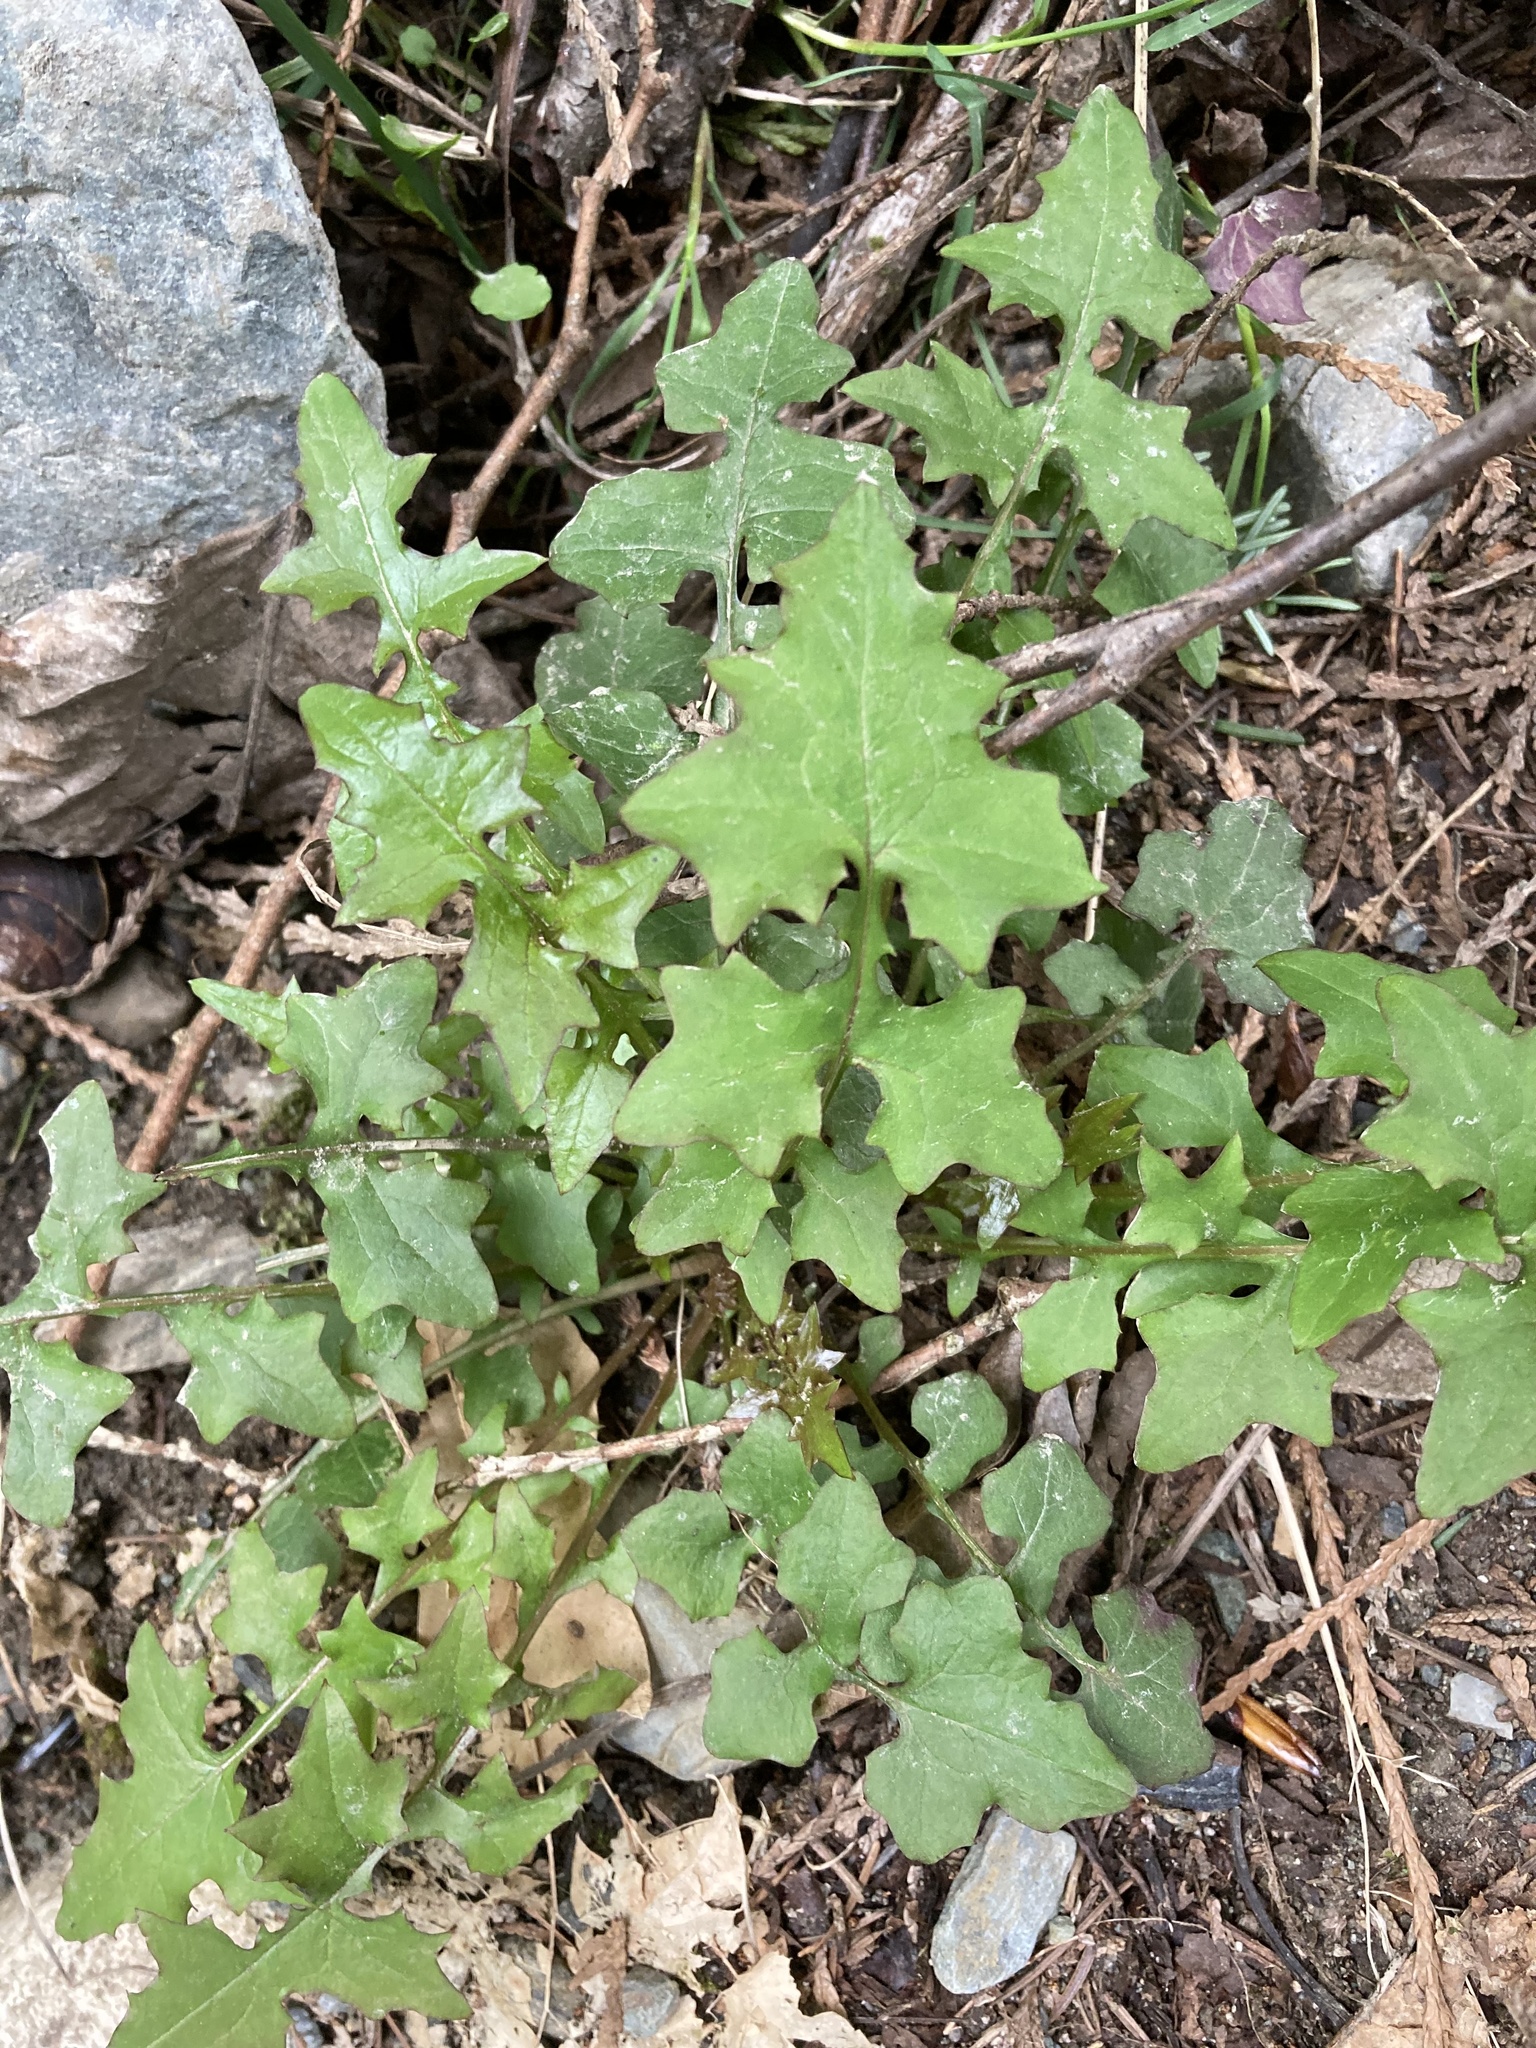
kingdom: Plantae
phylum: Tracheophyta
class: Magnoliopsida
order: Asterales
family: Asteraceae
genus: Mycelis
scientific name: Mycelis muralis
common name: Wall lettuce
